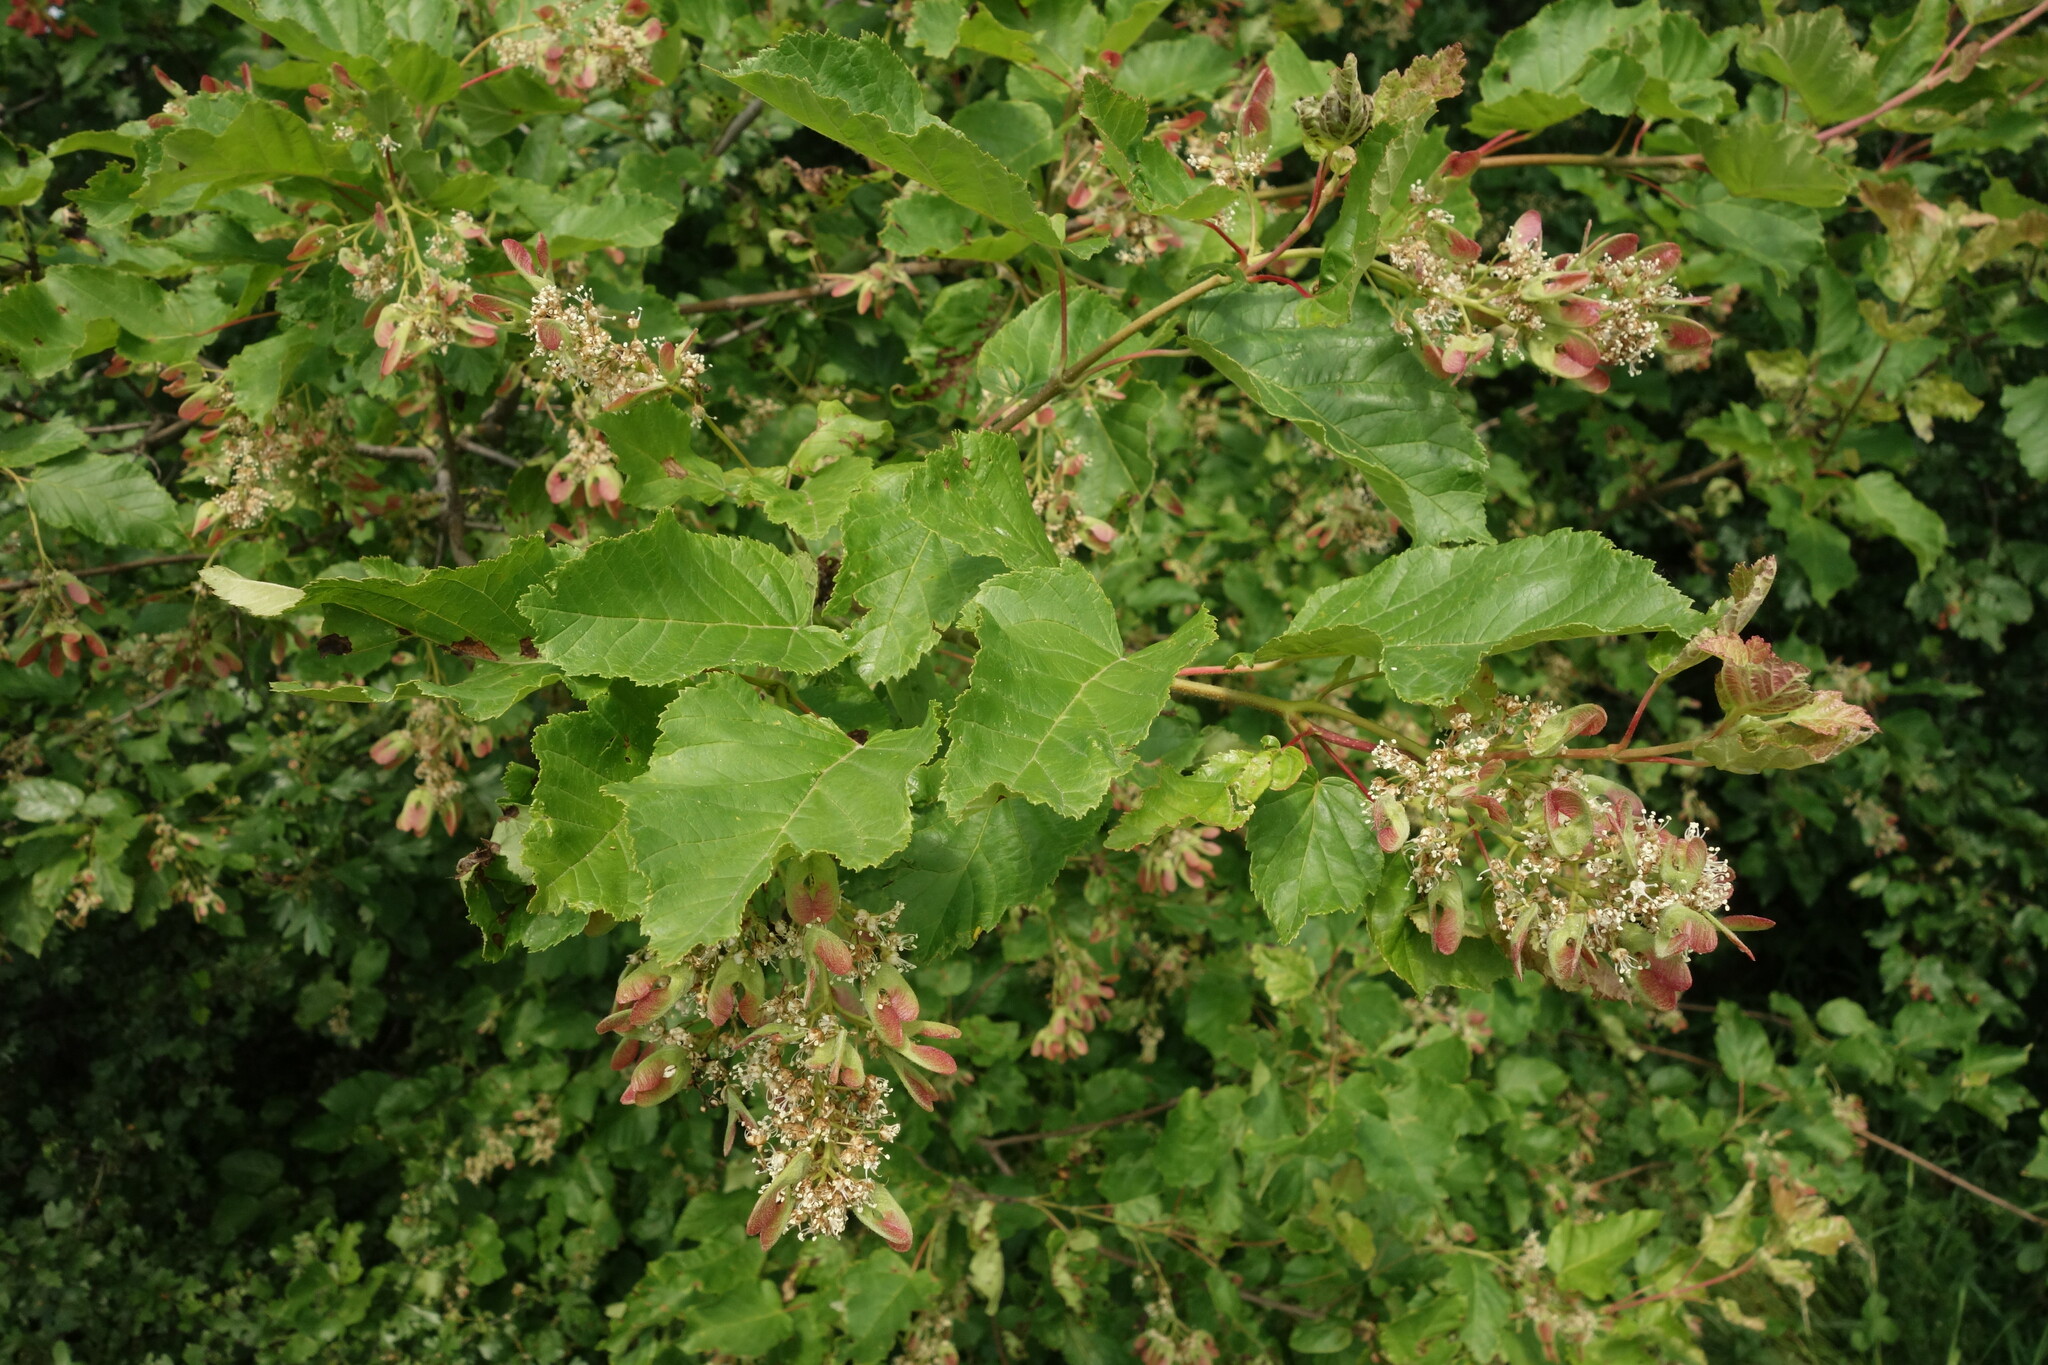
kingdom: Plantae
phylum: Tracheophyta
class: Magnoliopsida
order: Sapindales
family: Sapindaceae
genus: Acer
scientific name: Acer tataricum
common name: Tartar maple
